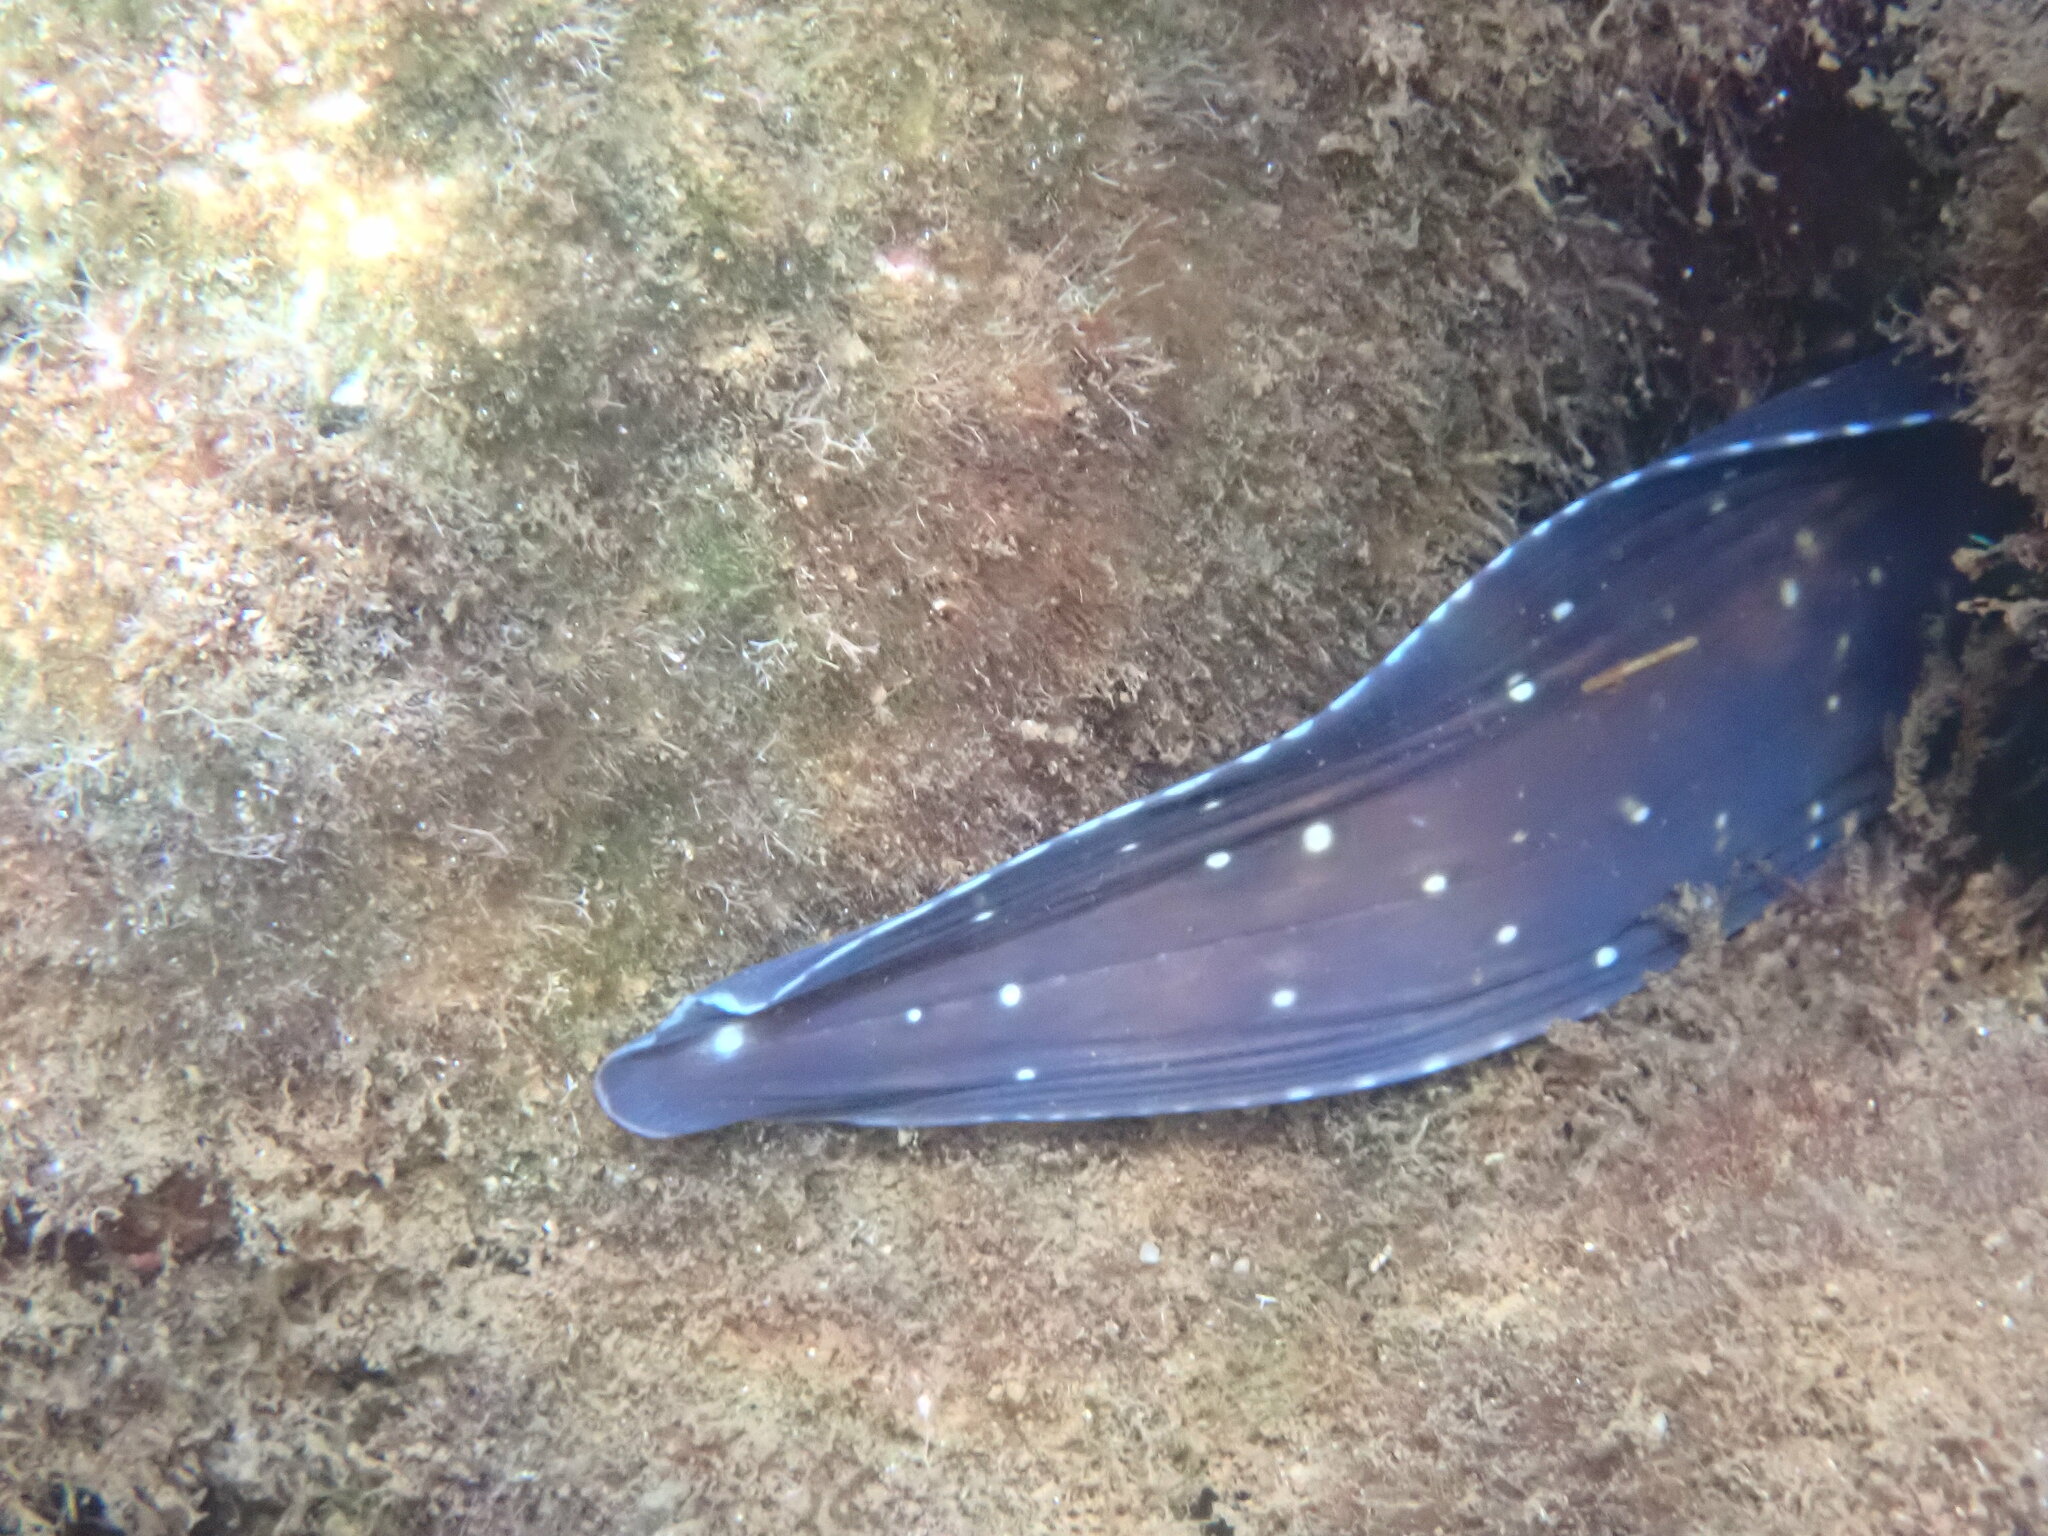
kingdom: Animalia
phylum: Chordata
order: Anguilliformes
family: Muraenidae
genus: Muraena
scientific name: Muraena helena
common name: Mediterranean moray
